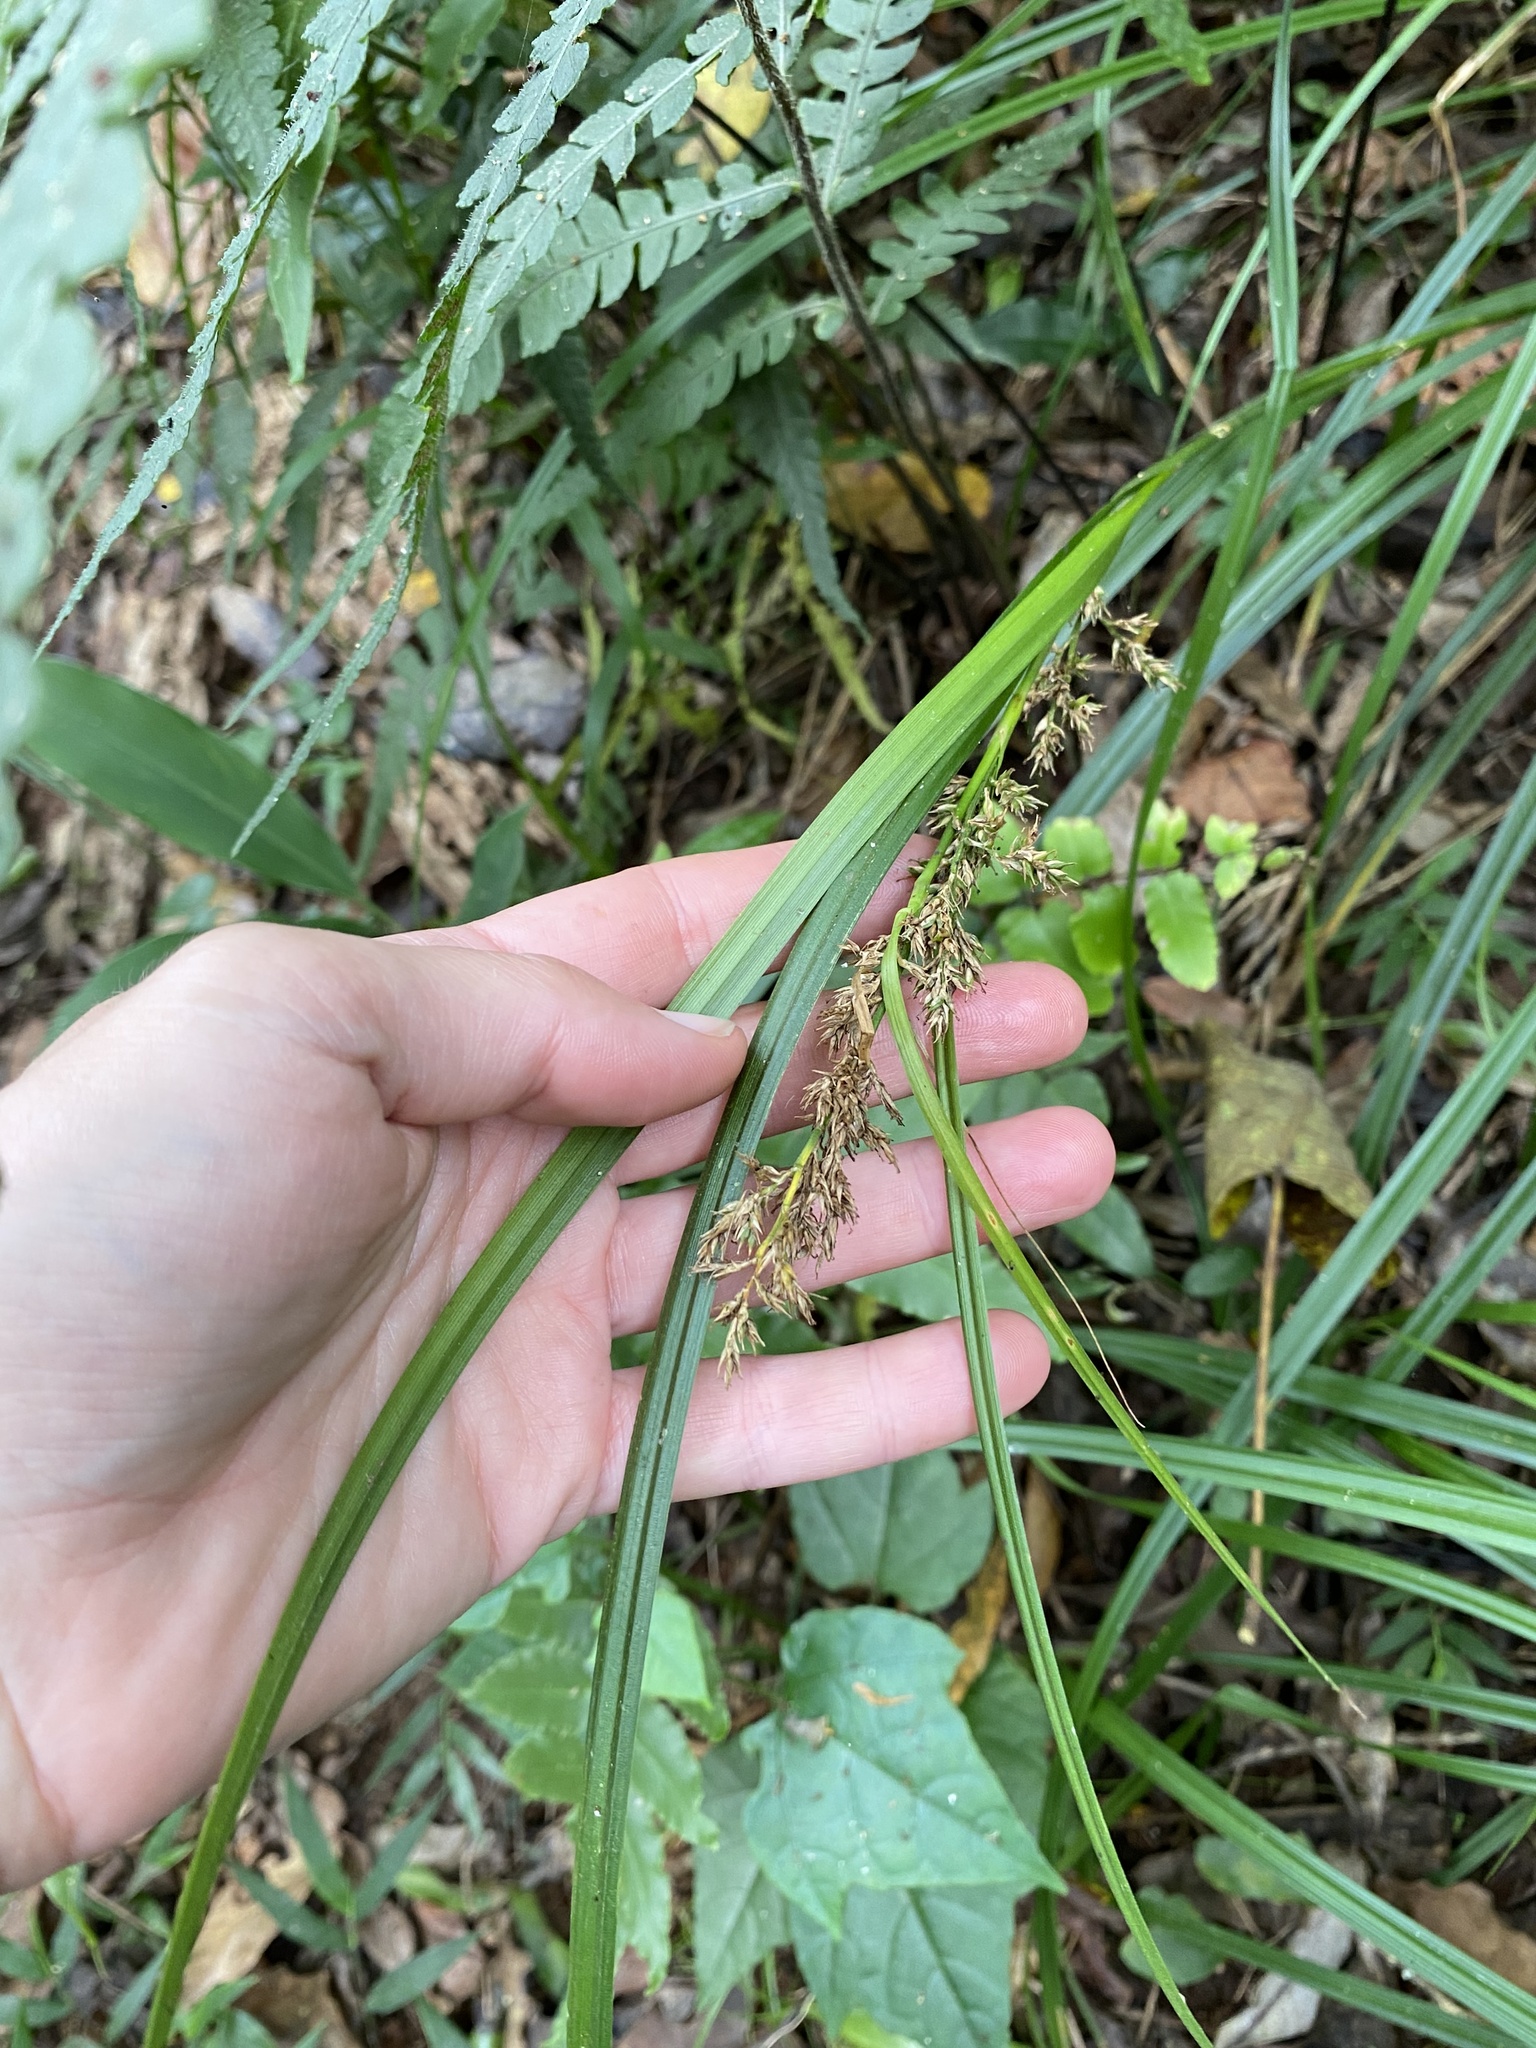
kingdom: Plantae
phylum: Tracheophyta
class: Liliopsida
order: Poales
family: Cyperaceae
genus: Carex
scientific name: Carex spicatopaniculata
